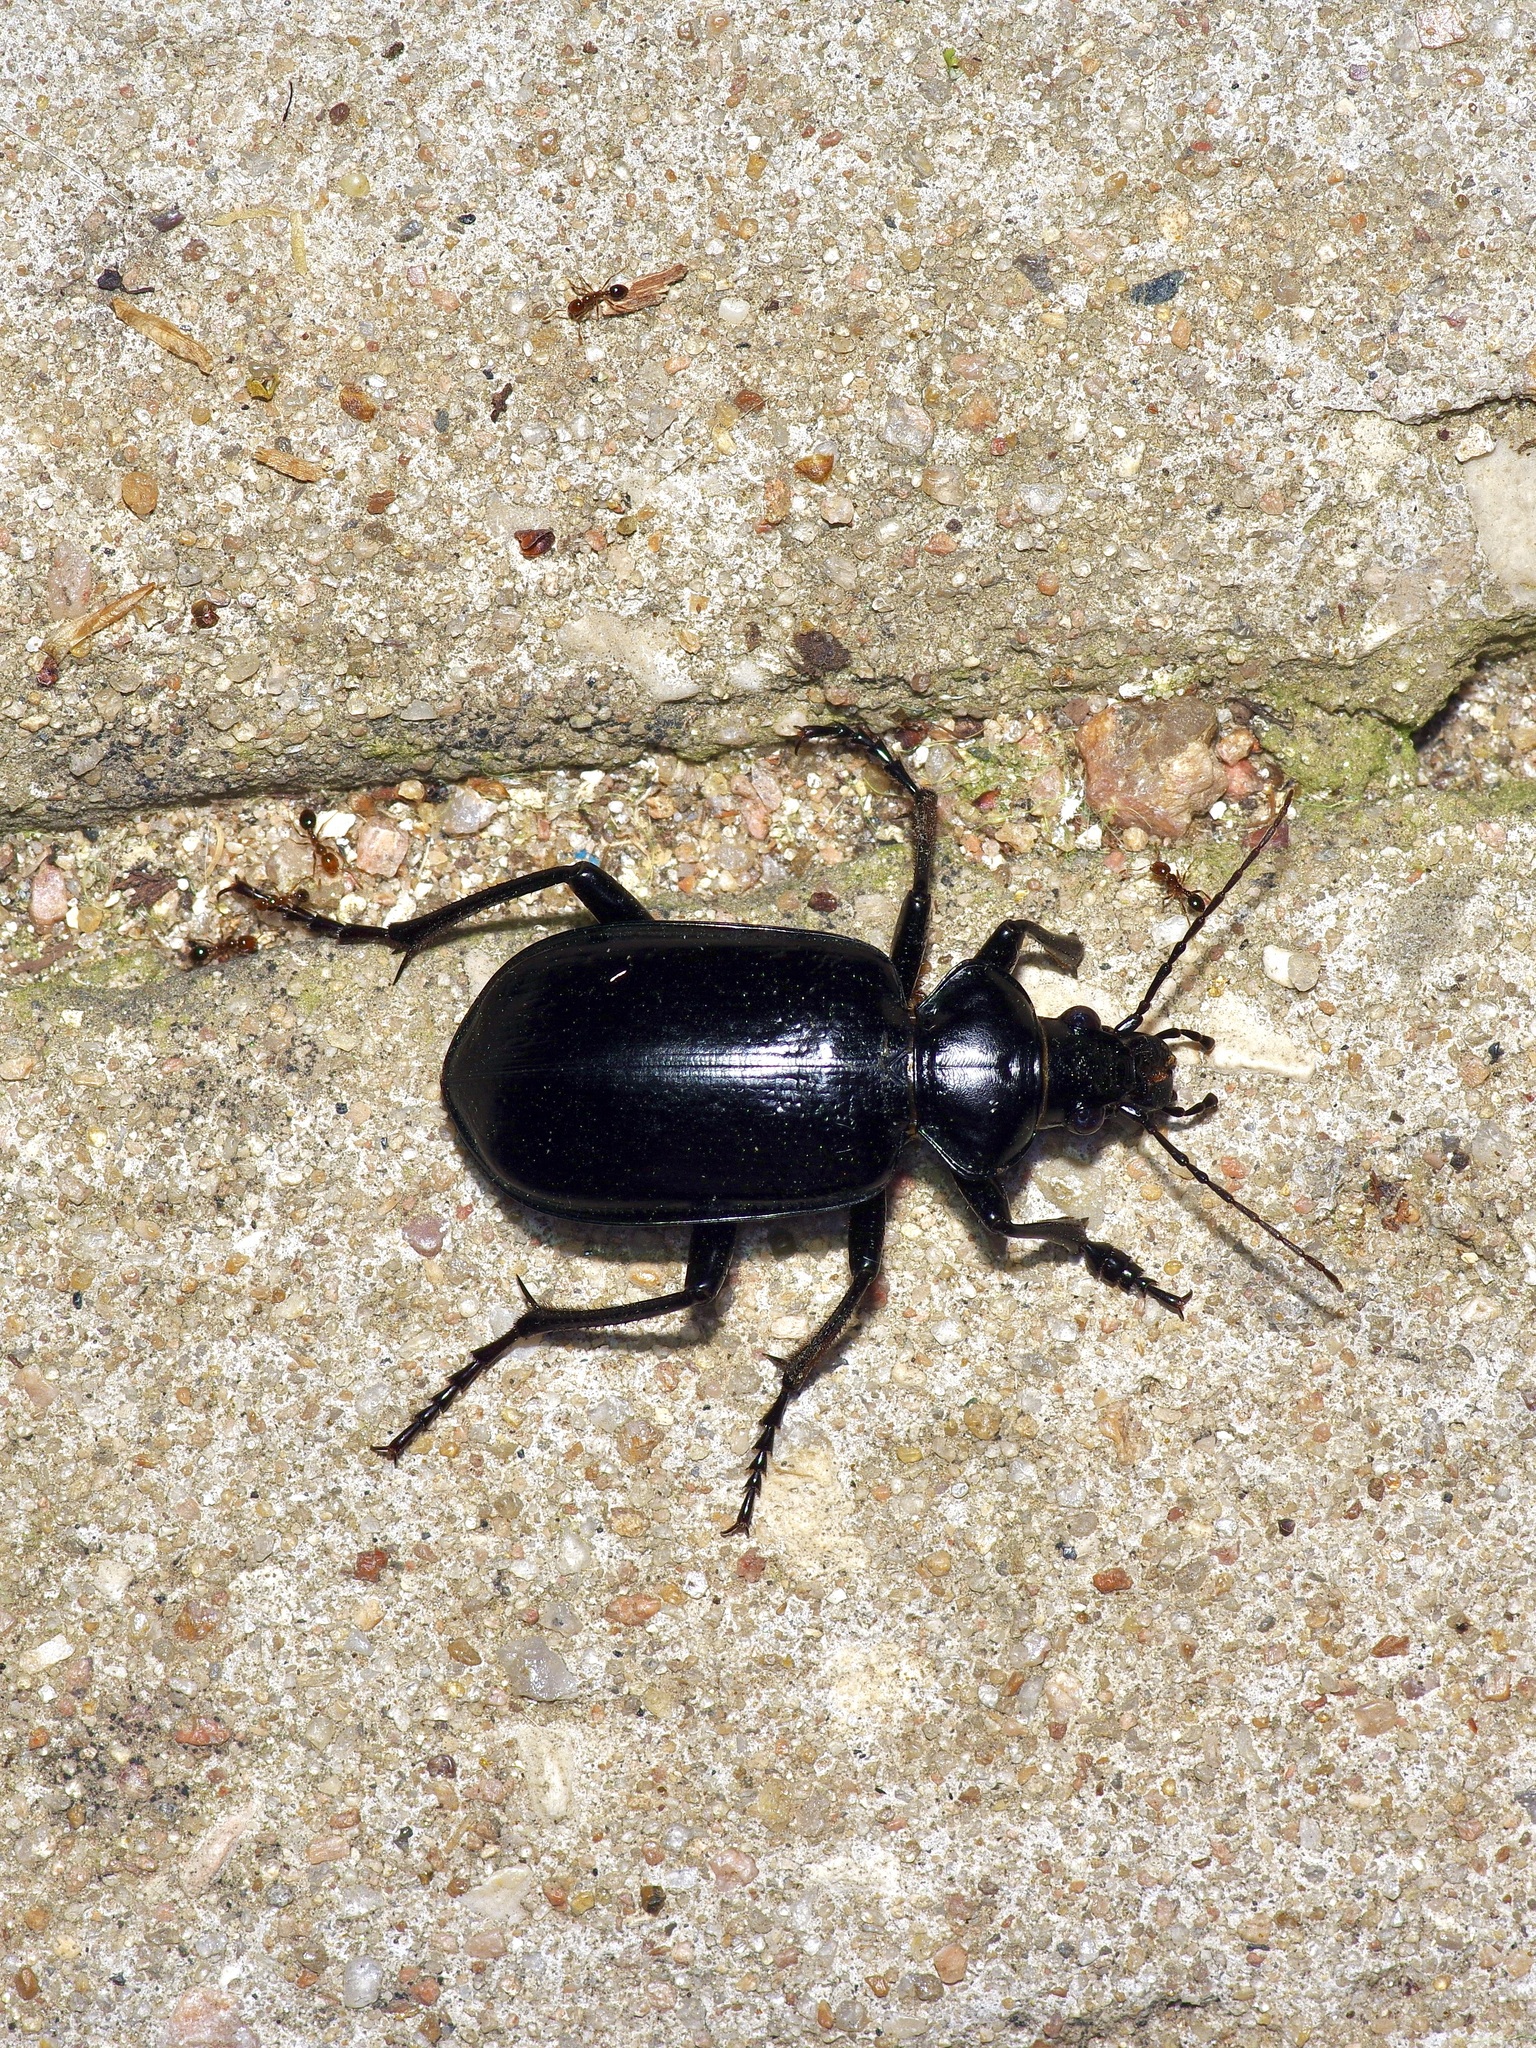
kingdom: Animalia
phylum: Arthropoda
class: Insecta
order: Coleoptera
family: Carabidae
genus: Calosoma
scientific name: Calosoma marginale
